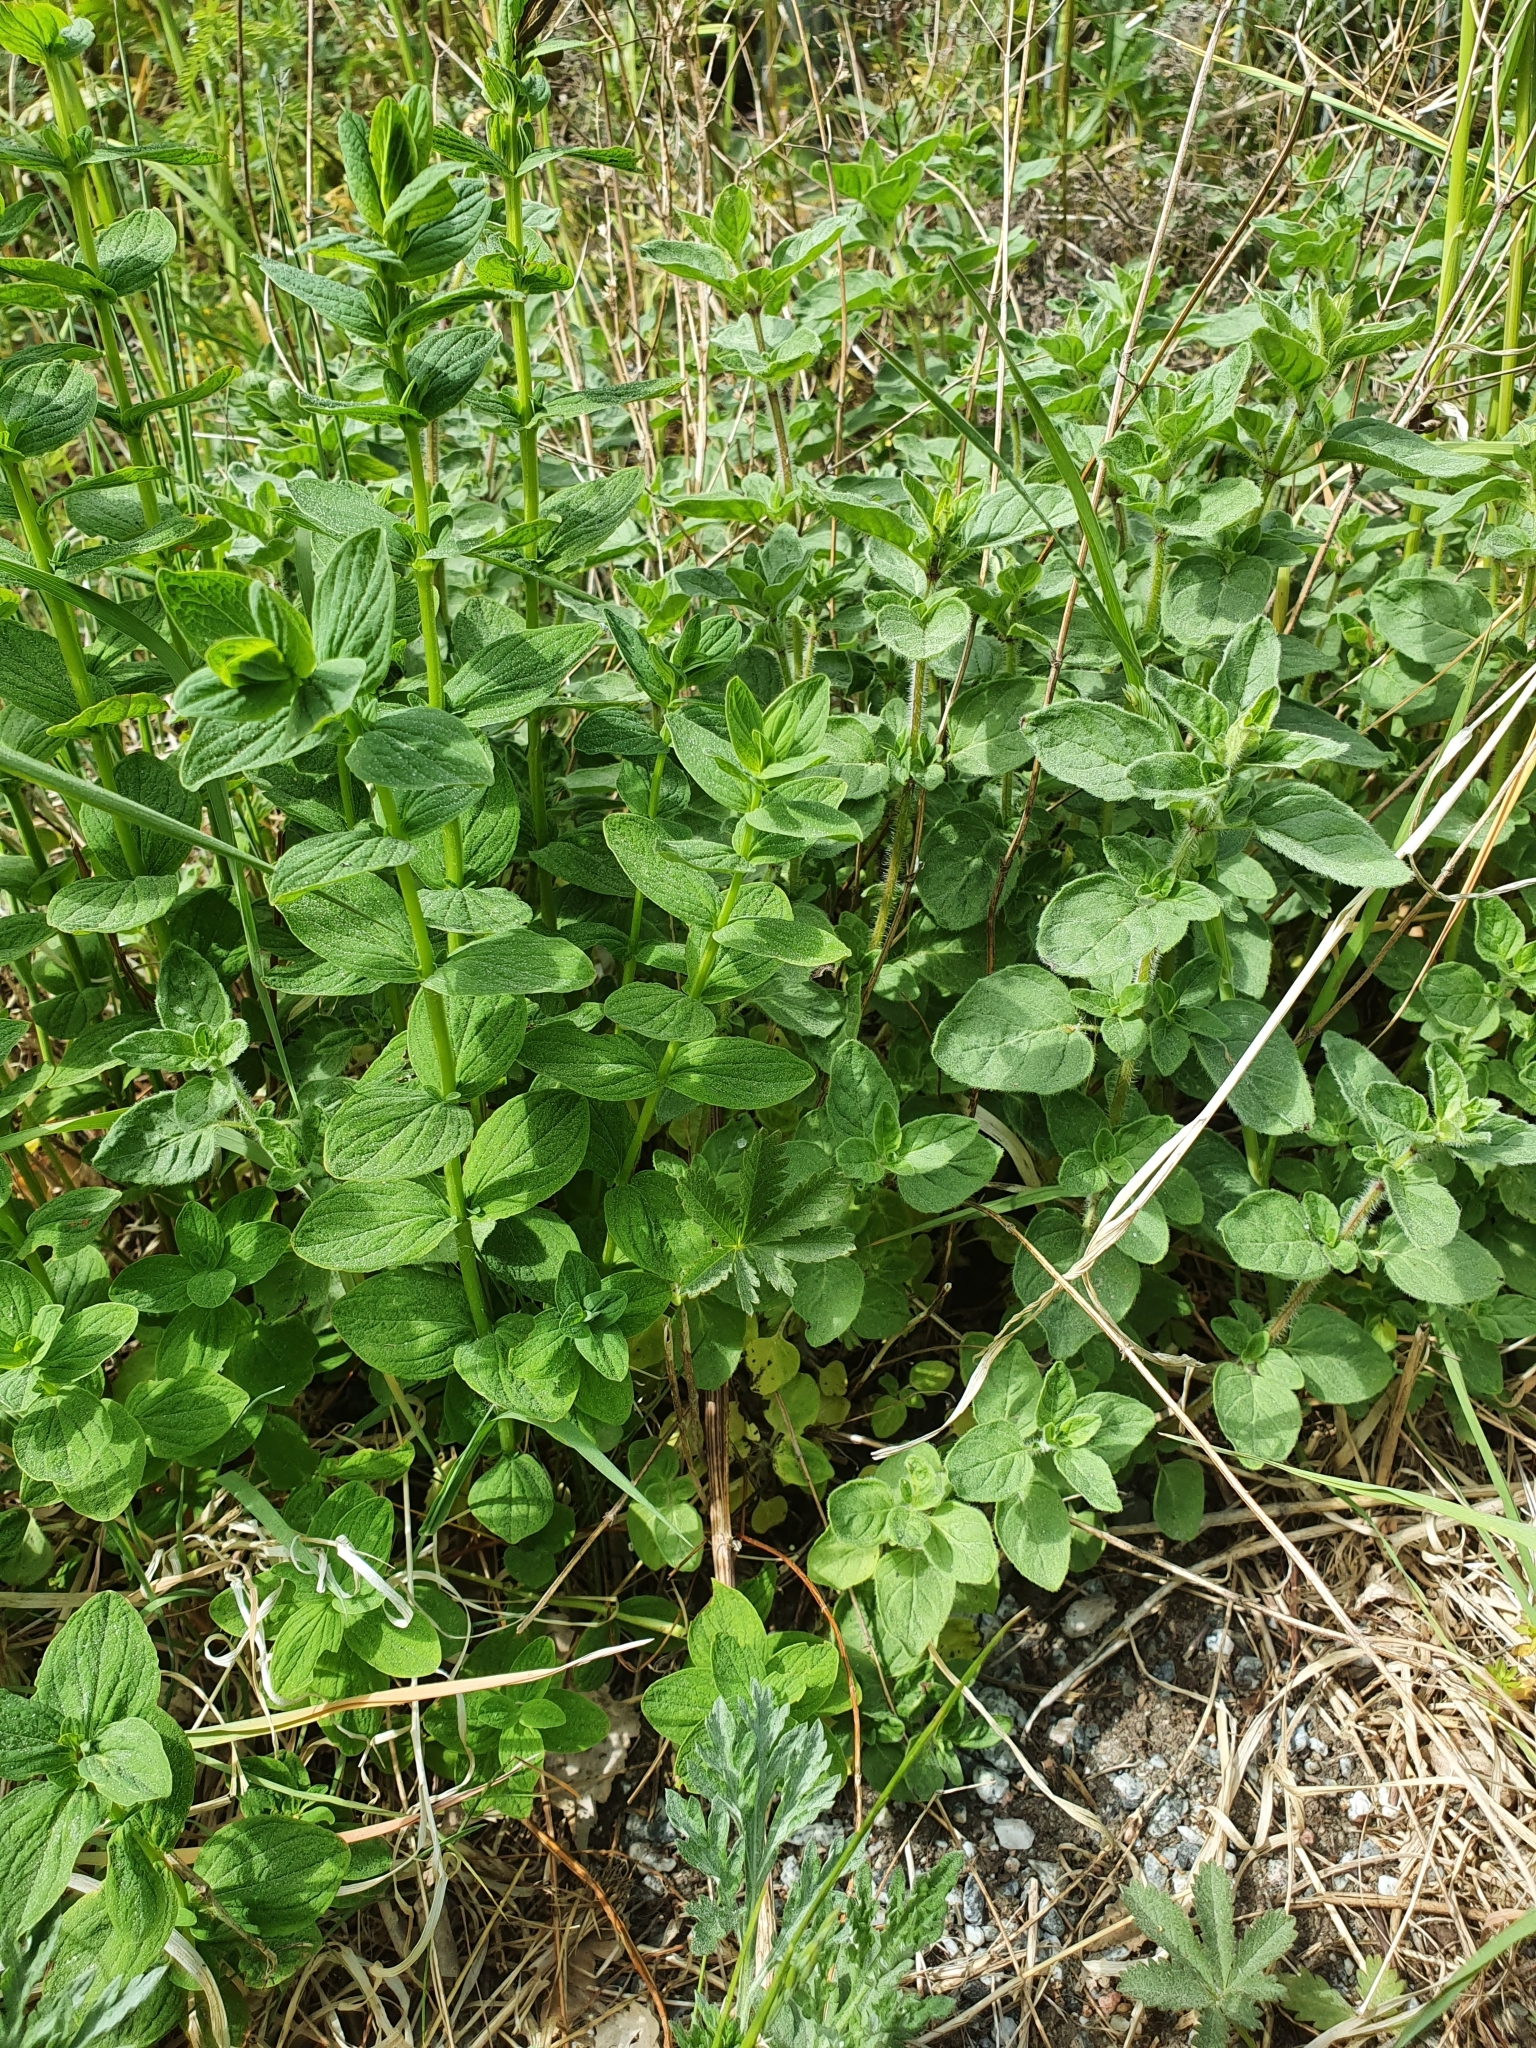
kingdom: Plantae
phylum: Tracheophyta
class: Magnoliopsida
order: Lamiales
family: Lamiaceae
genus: Origanum
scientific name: Origanum vulgare
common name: Wild marjoram
